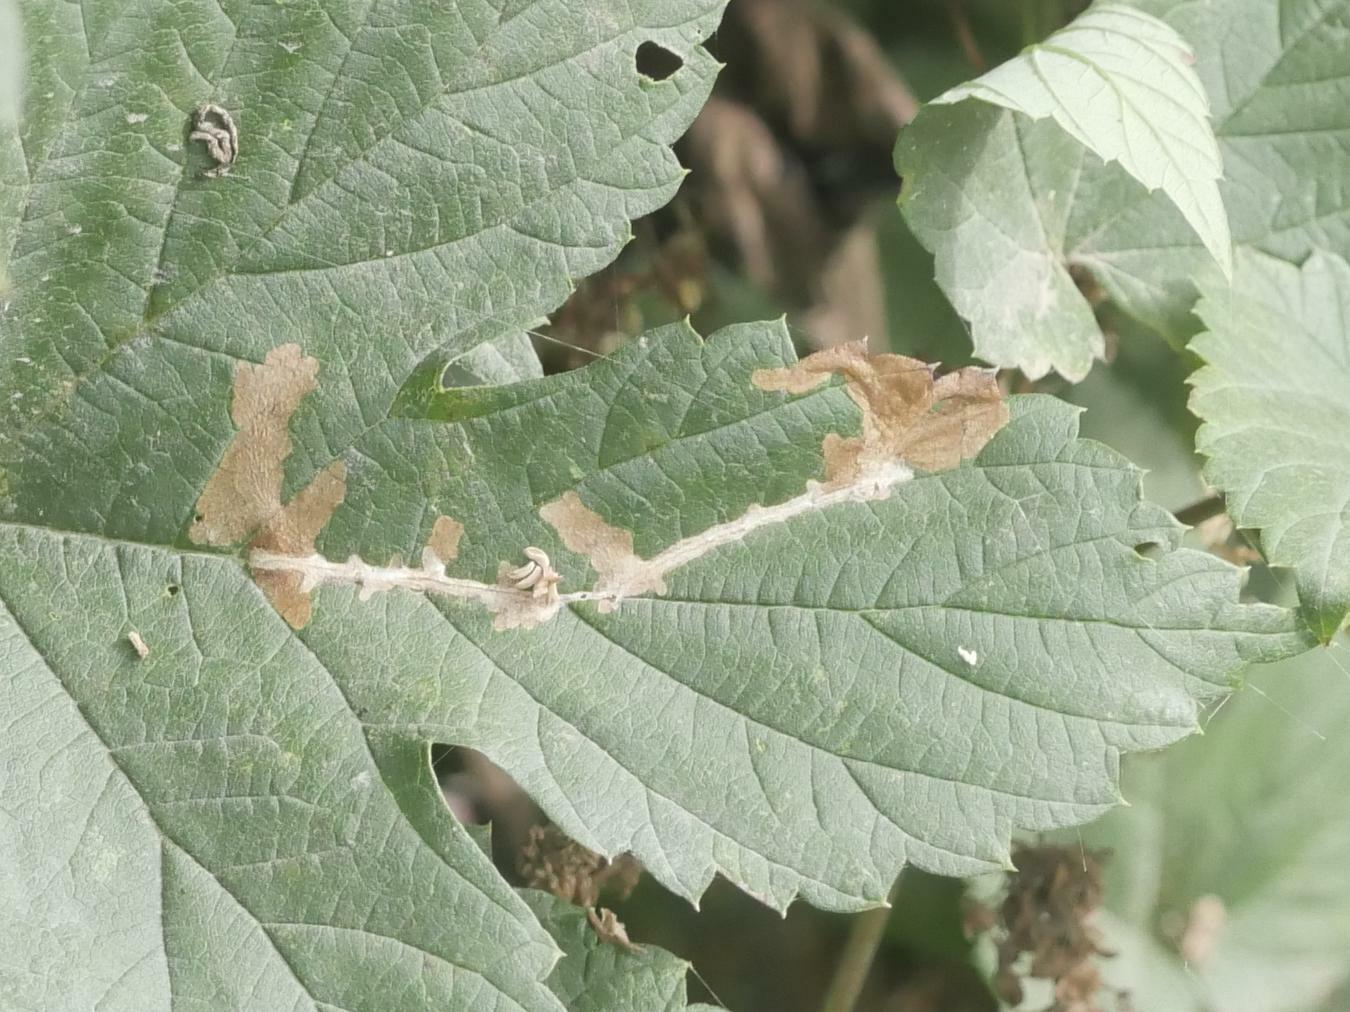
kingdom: Animalia
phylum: Arthropoda
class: Insecta
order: Lepidoptera
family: Cosmopterigidae
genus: Cosmopterix
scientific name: Cosmopterix zieglerella
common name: Hedge cosmet
